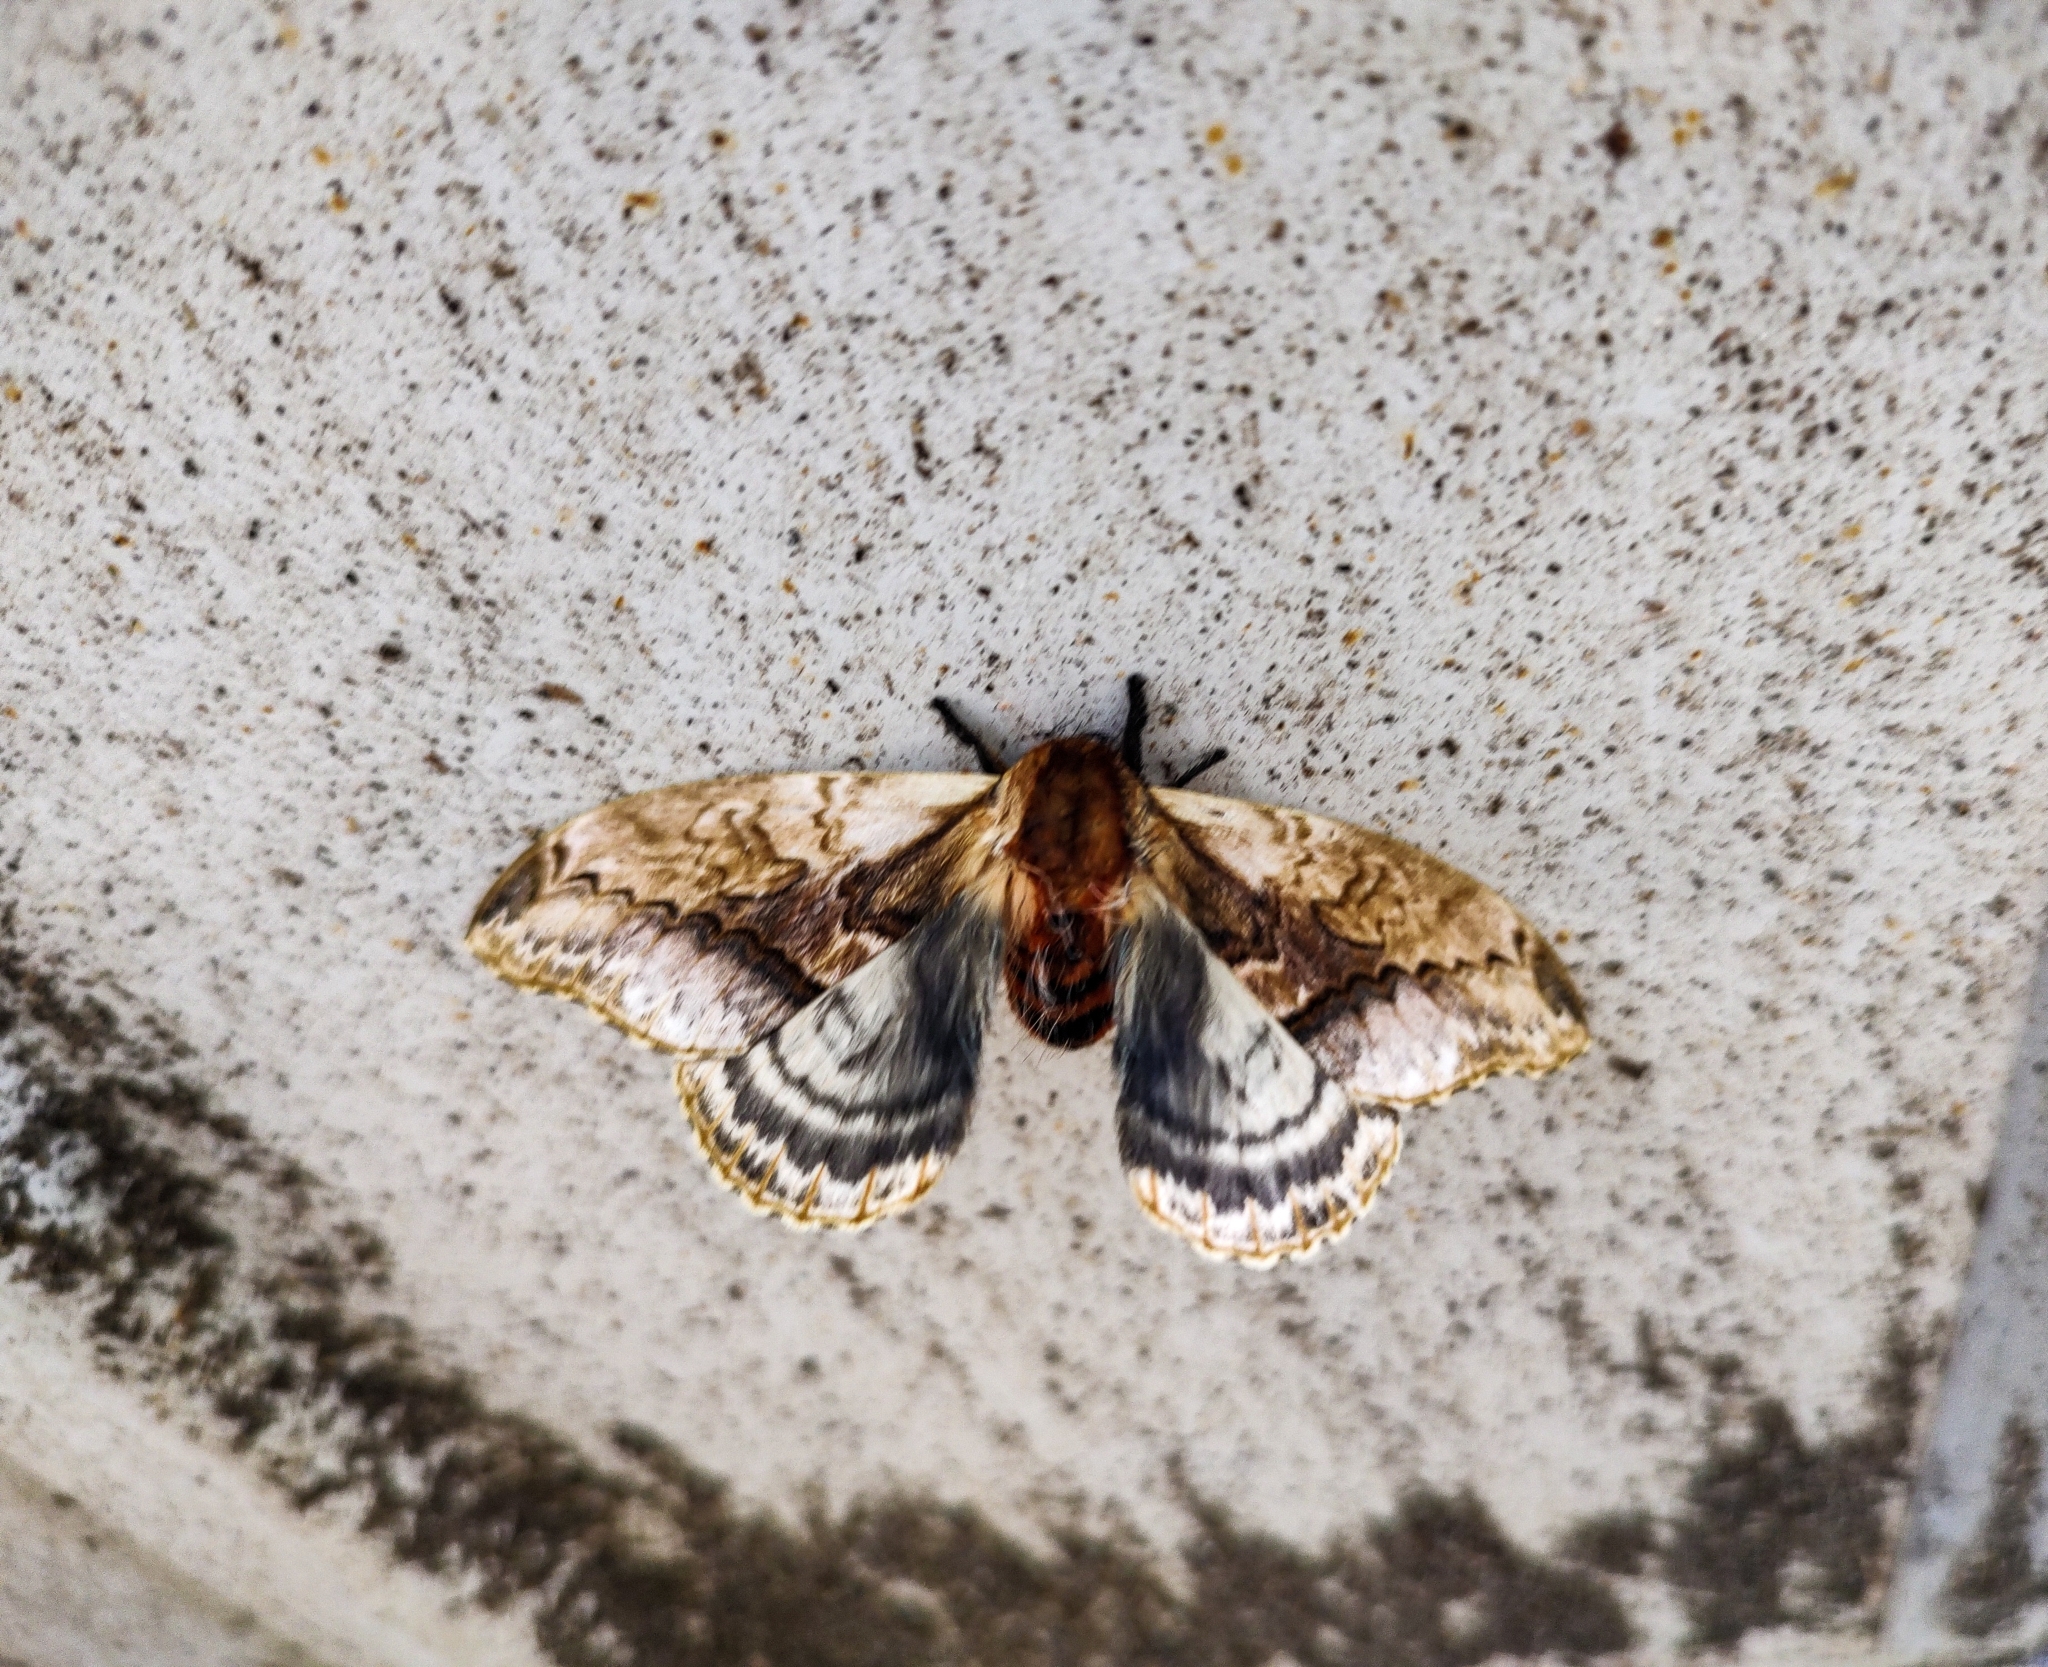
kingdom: Animalia
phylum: Arthropoda
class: Insecta
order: Lepidoptera
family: Saturniidae
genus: Molippa
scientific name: Molippa sabina
